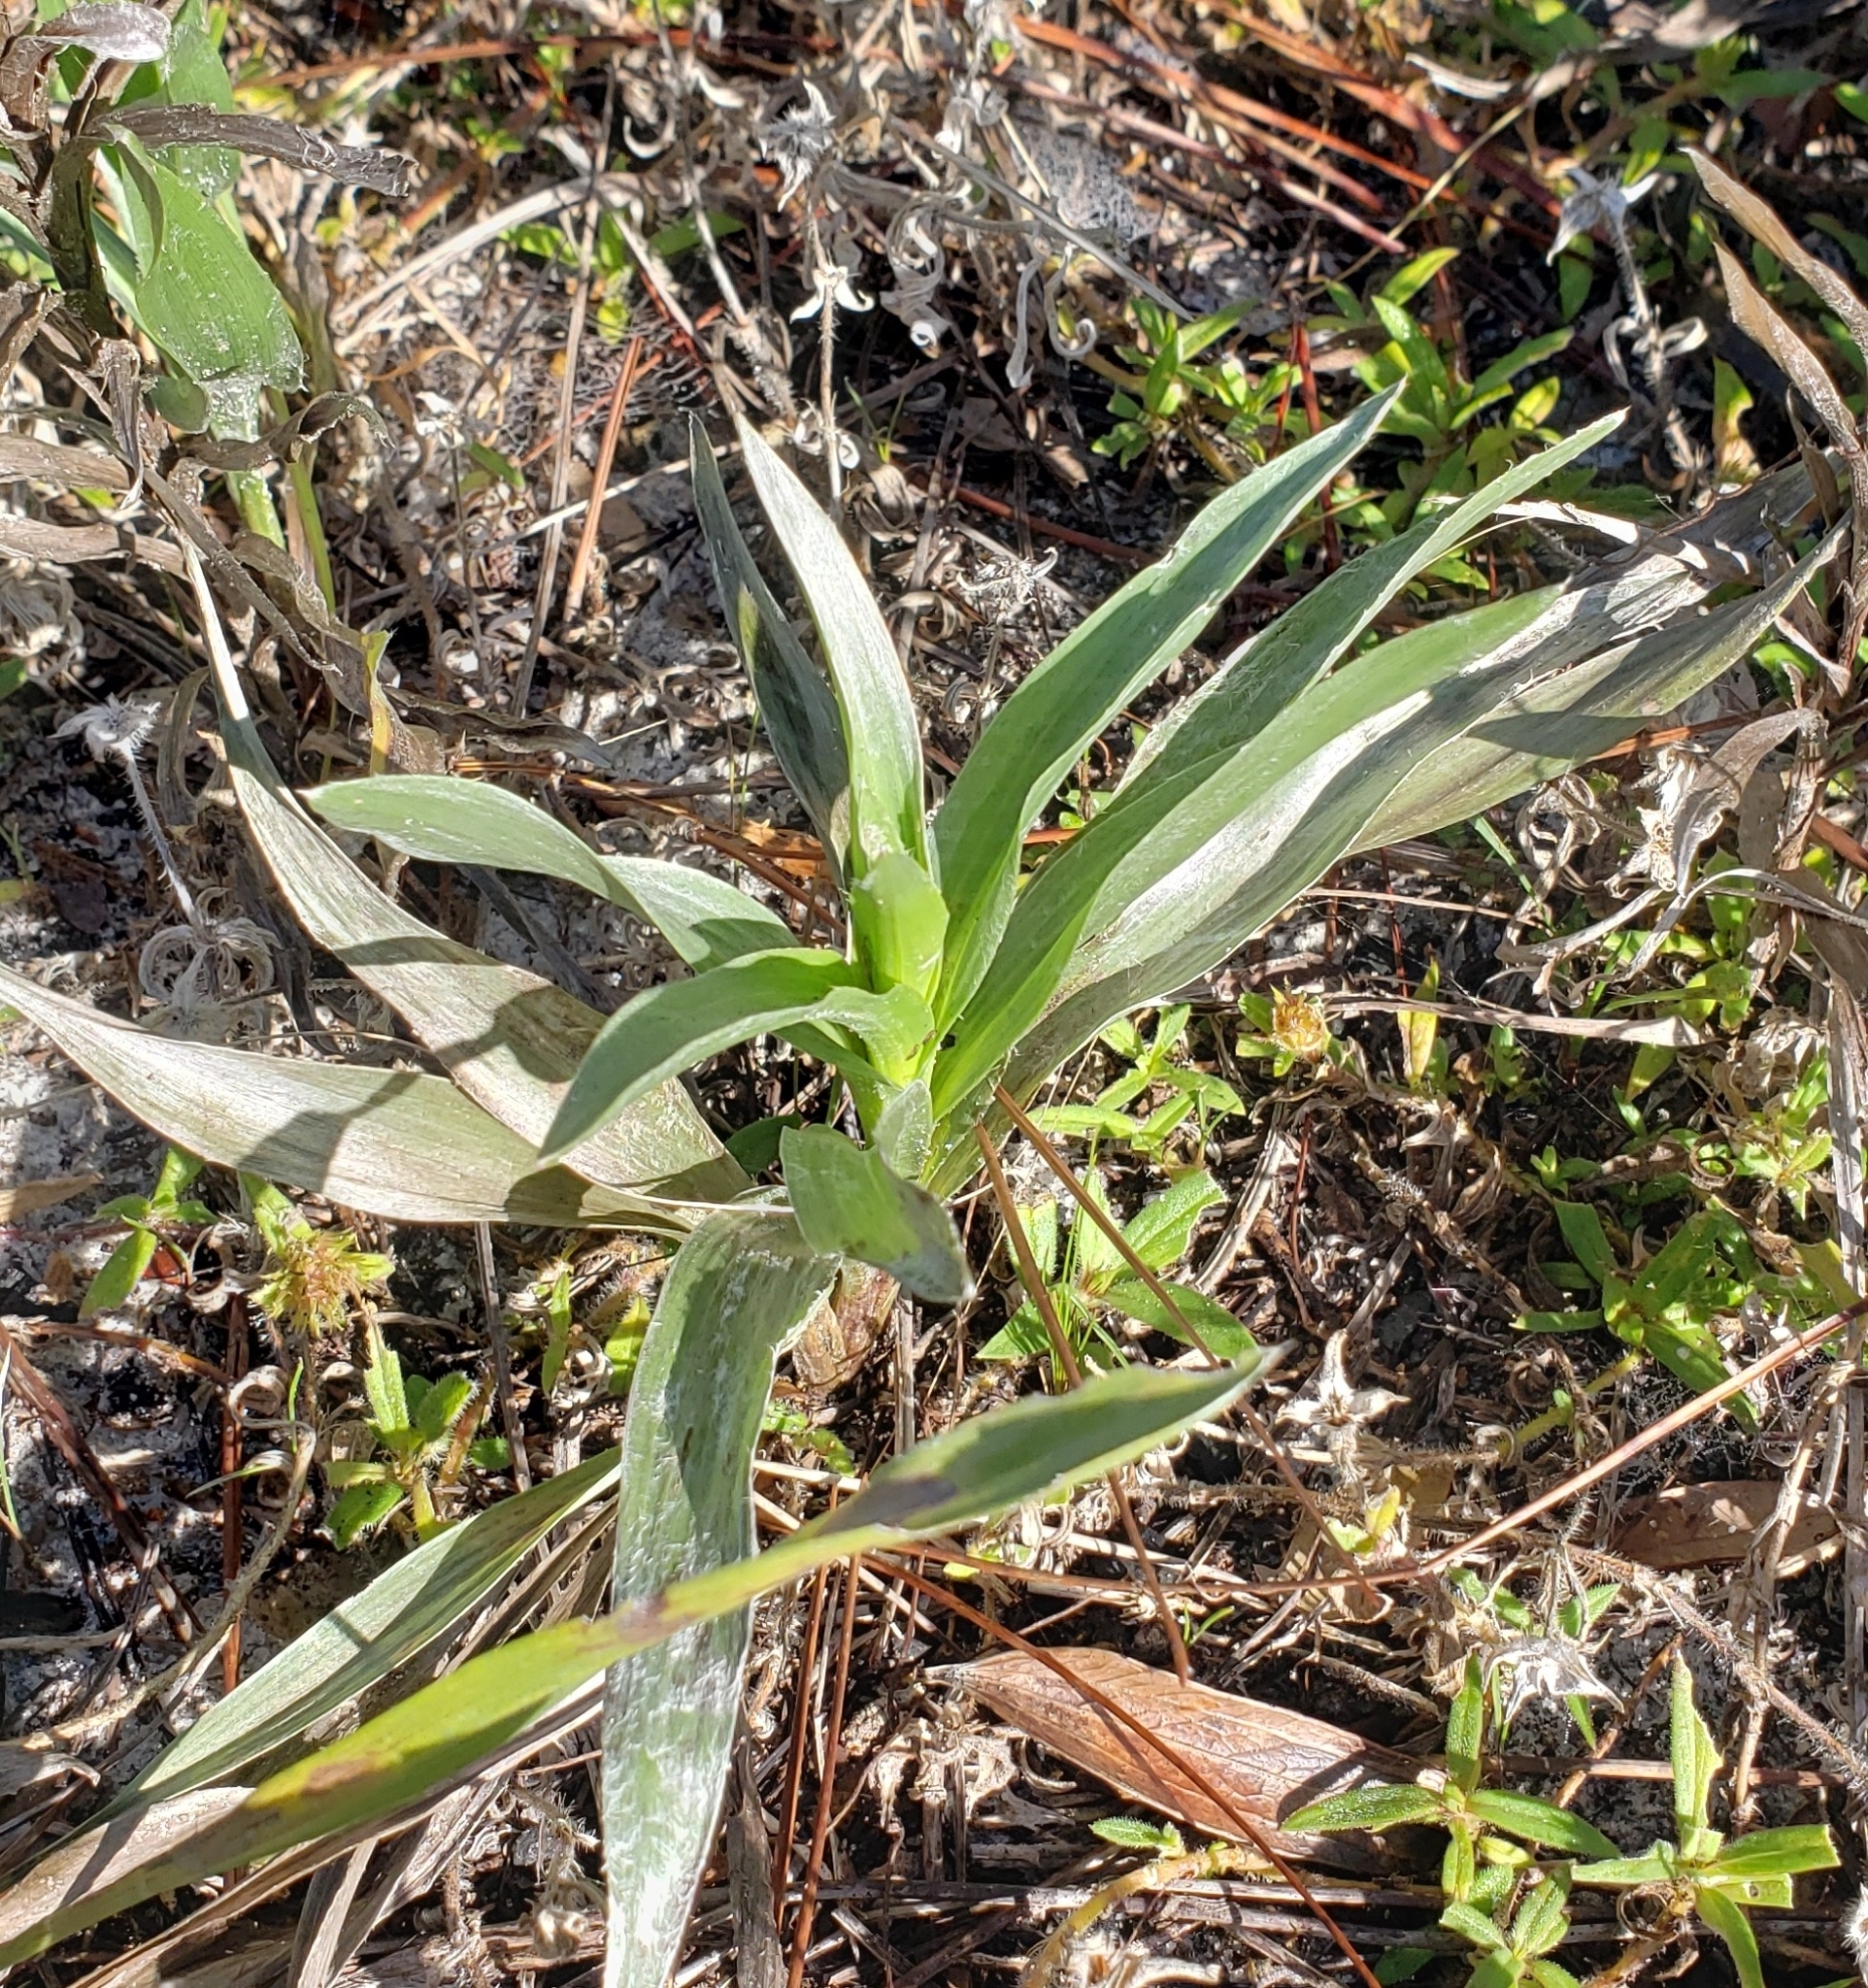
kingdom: Plantae
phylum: Tracheophyta
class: Magnoliopsida
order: Asterales
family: Asteraceae
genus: Pityopsis
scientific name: Pityopsis latifolia
